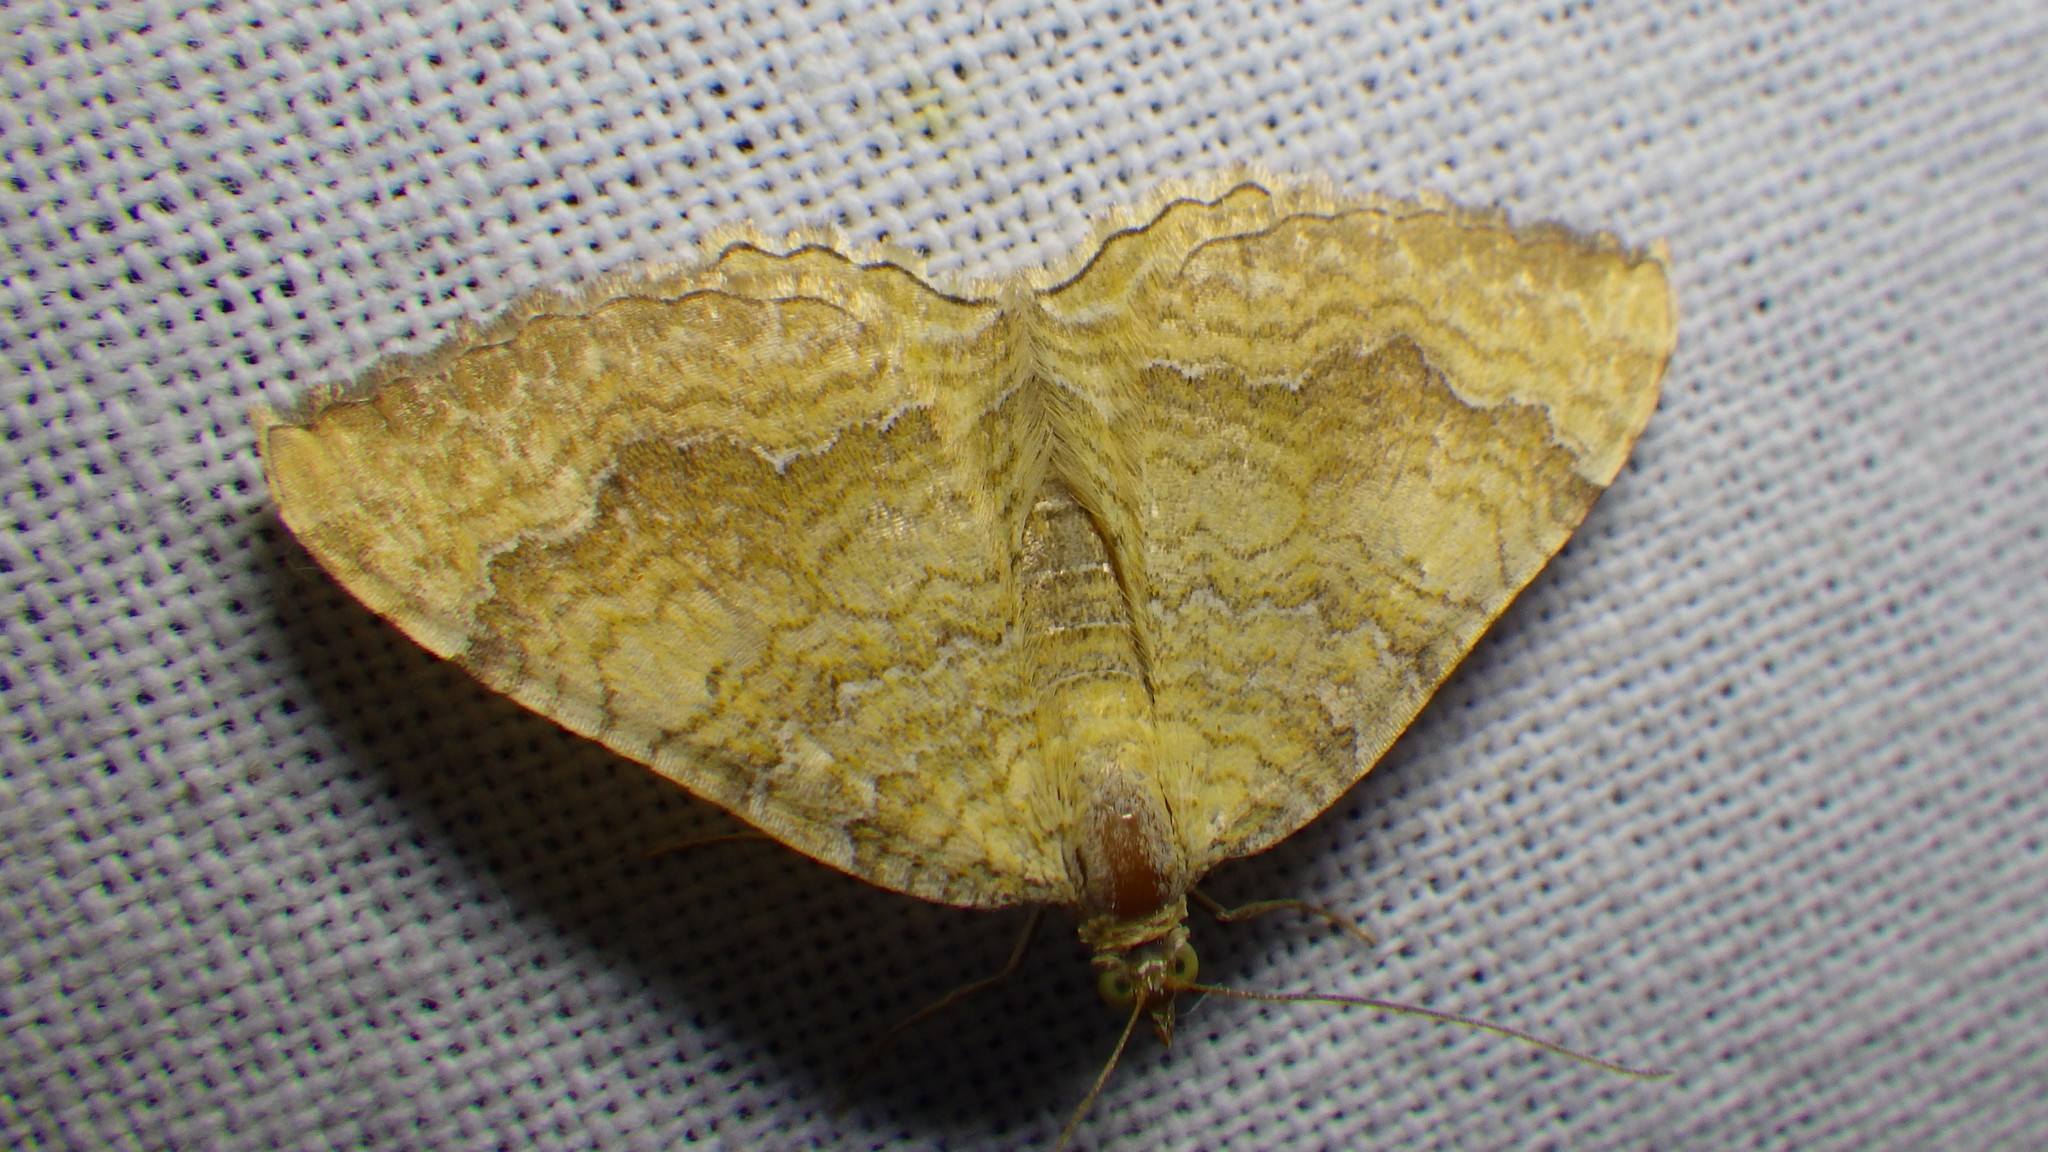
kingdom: Animalia
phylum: Arthropoda
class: Insecta
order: Lepidoptera
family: Geometridae
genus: Camptogramma
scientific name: Camptogramma bilineata
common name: Yellow shell
